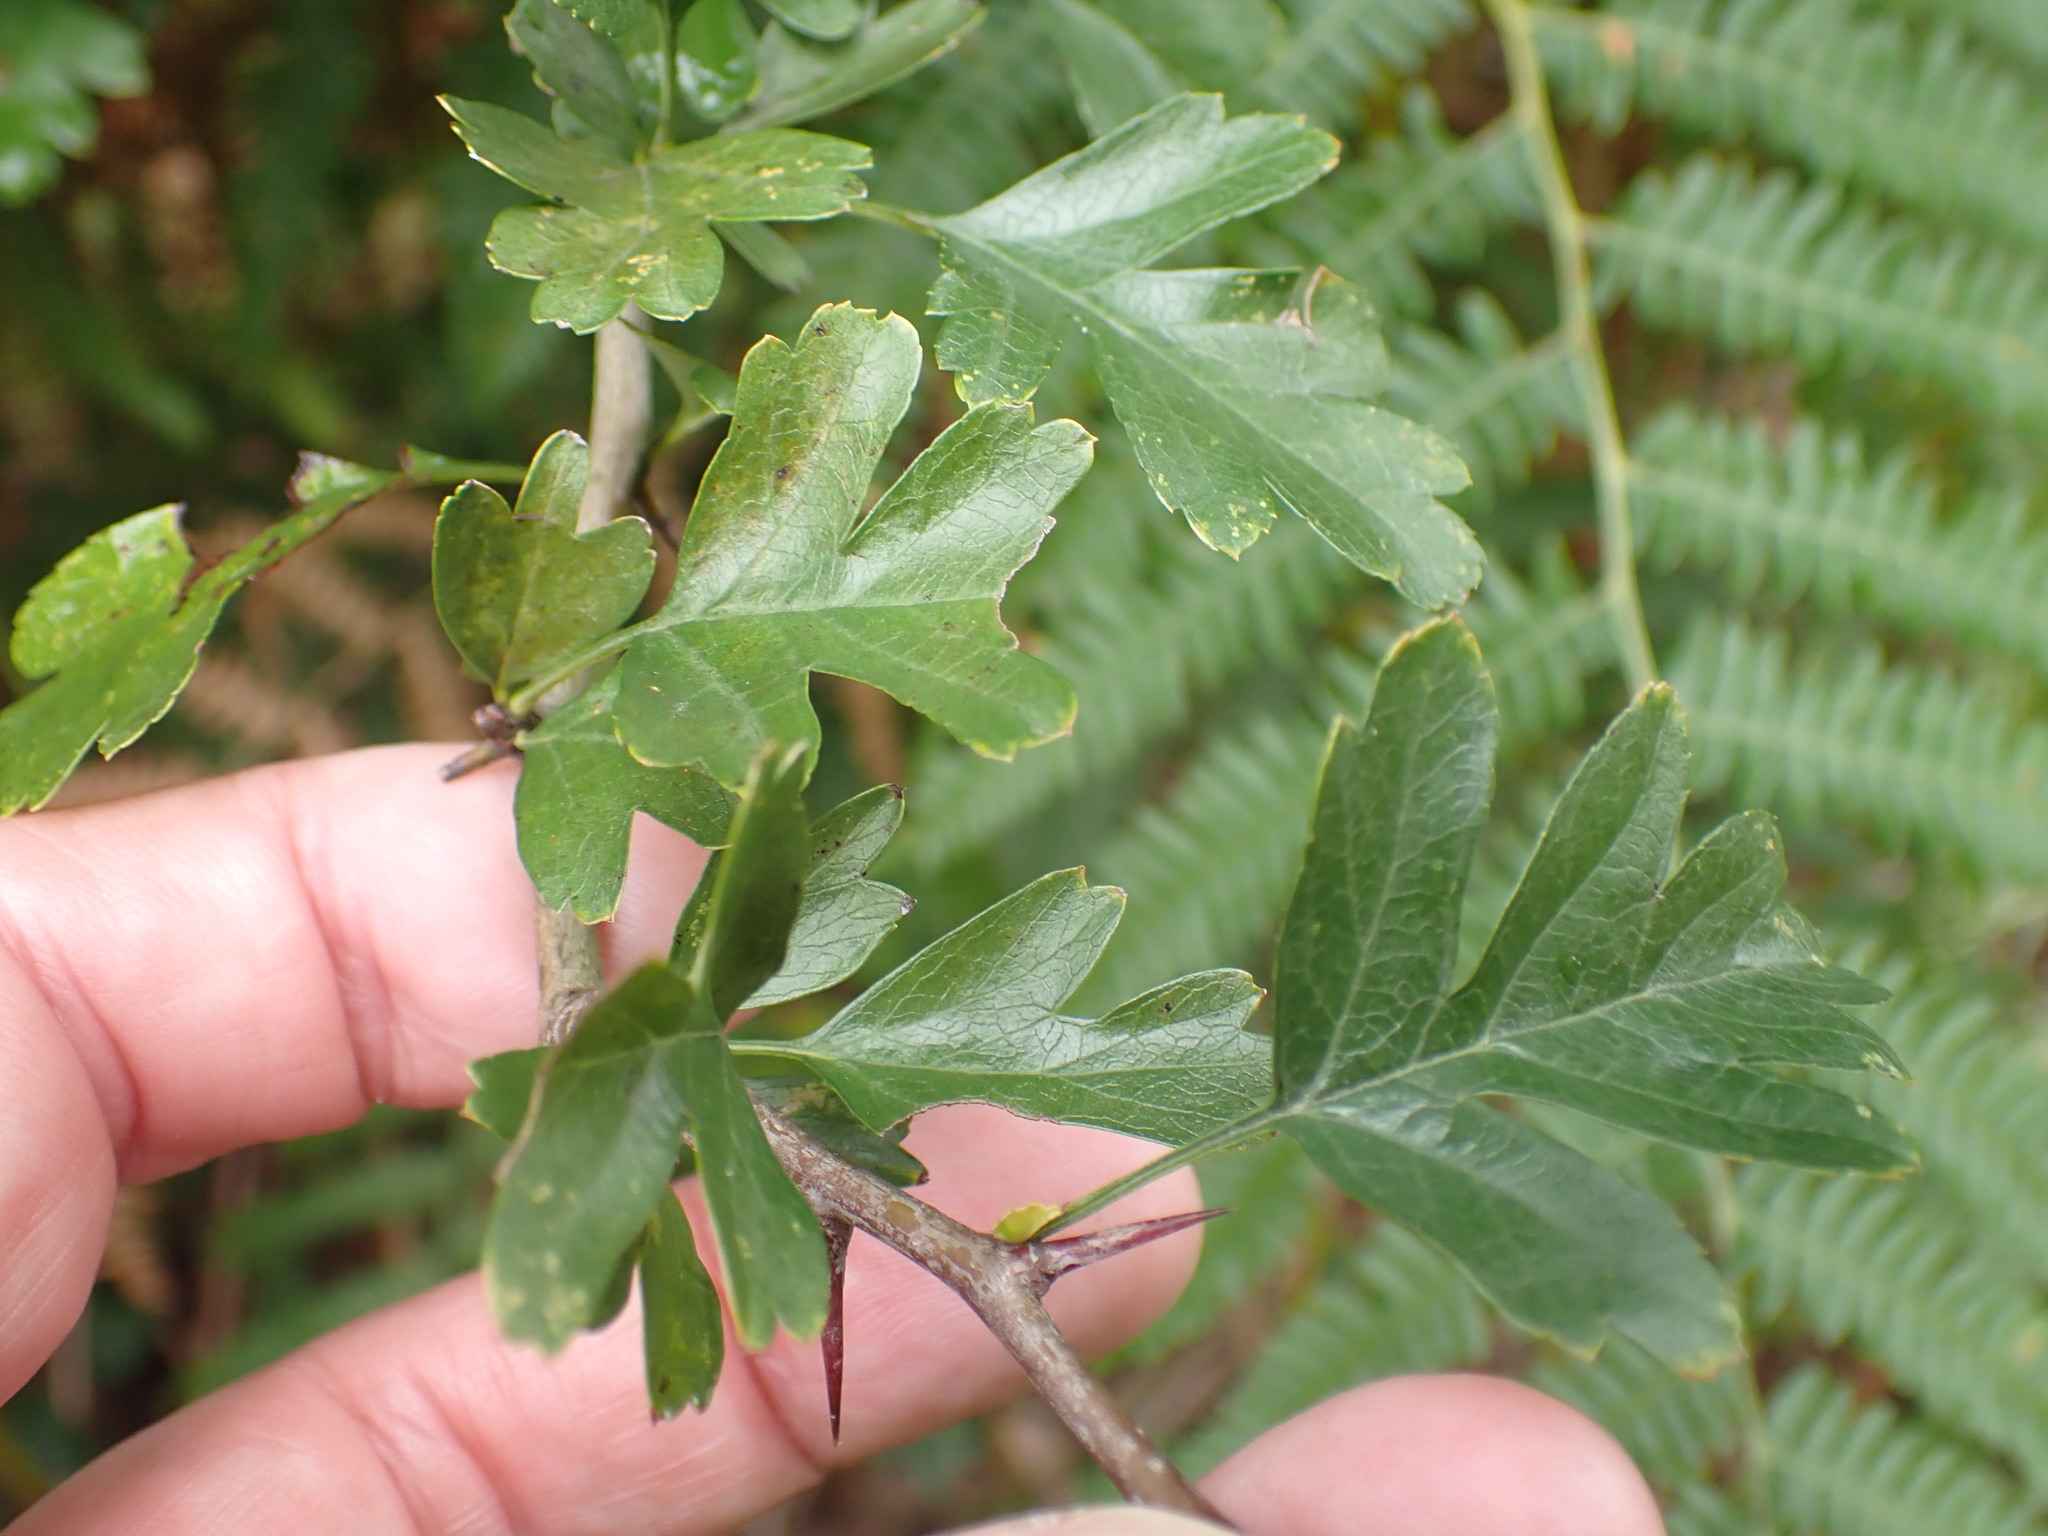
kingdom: Plantae
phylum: Tracheophyta
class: Magnoliopsida
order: Rosales
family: Rosaceae
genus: Crataegus
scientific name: Crataegus monogyna
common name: Hawthorn
